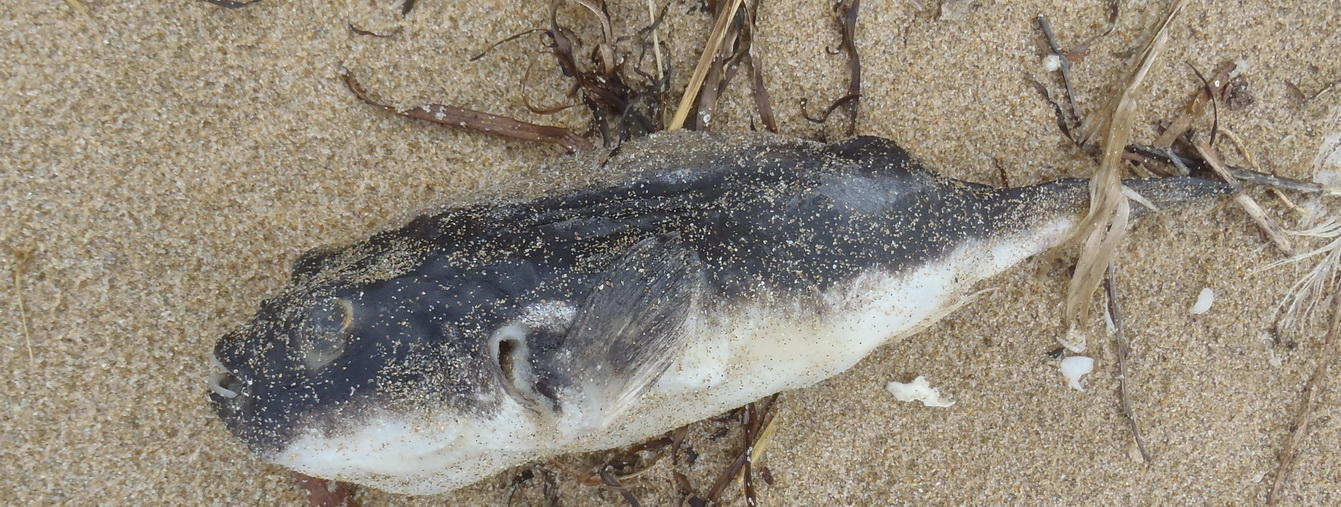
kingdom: Animalia
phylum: Chordata
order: Tetraodontiformes
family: Tetraodontidae
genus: Amblyrhynchote
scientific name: Amblyrhynchote honckenii
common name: Evileye blaasop
